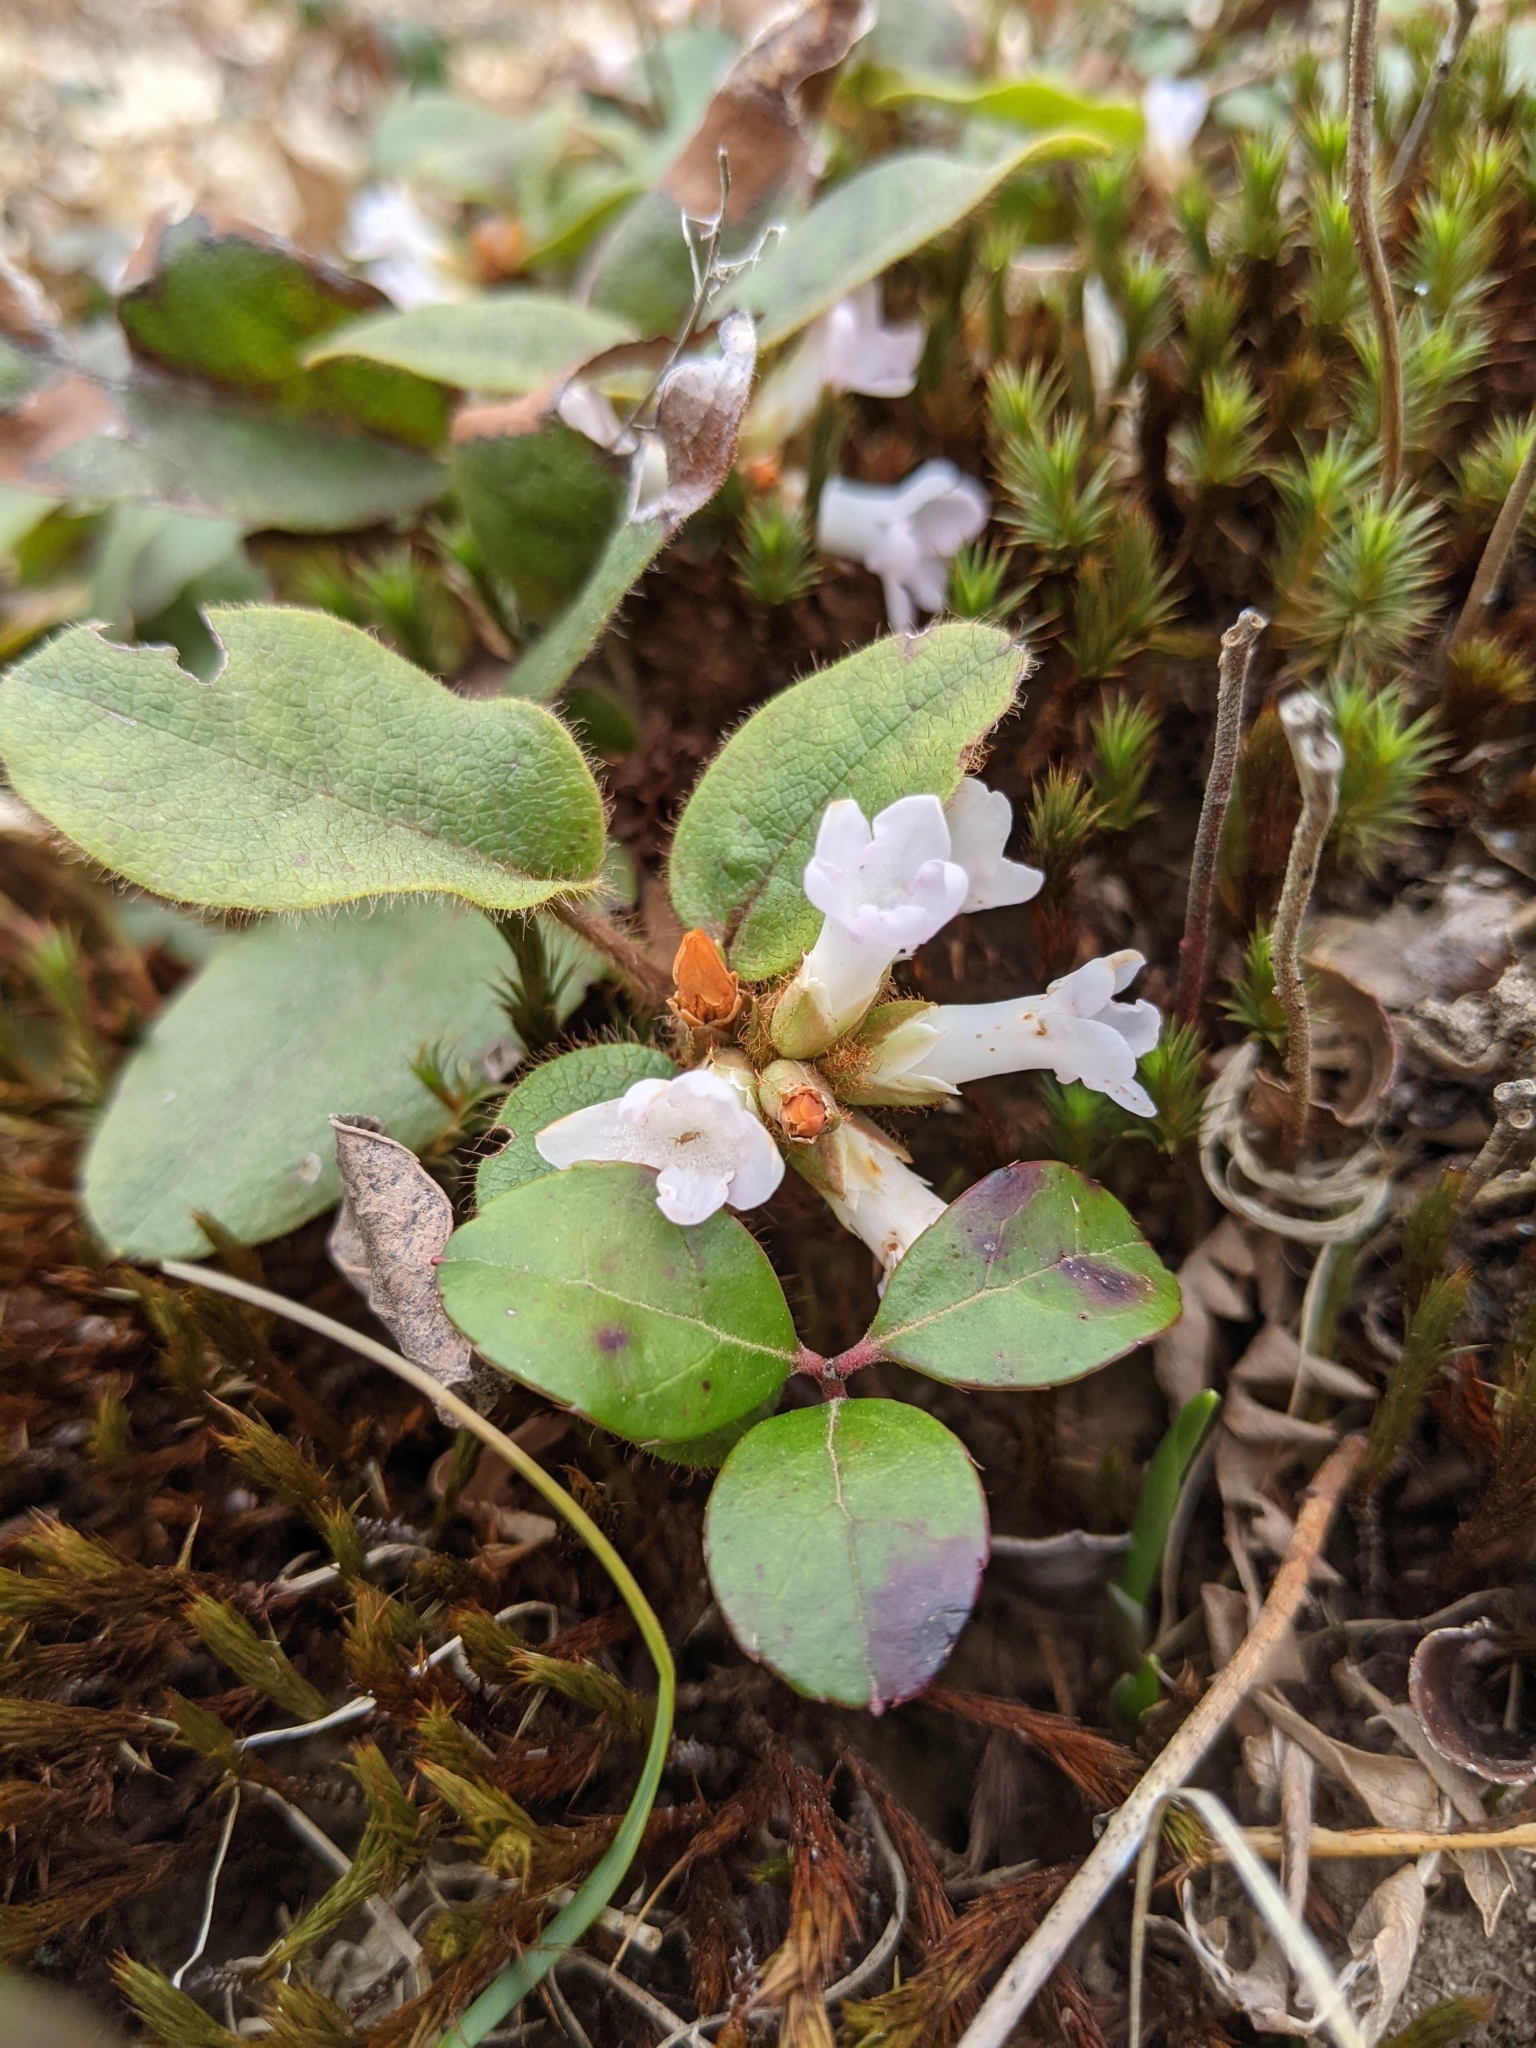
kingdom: Plantae
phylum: Tracheophyta
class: Magnoliopsida
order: Ericales
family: Ericaceae
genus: Epigaea
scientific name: Epigaea repens
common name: Gravelroot
